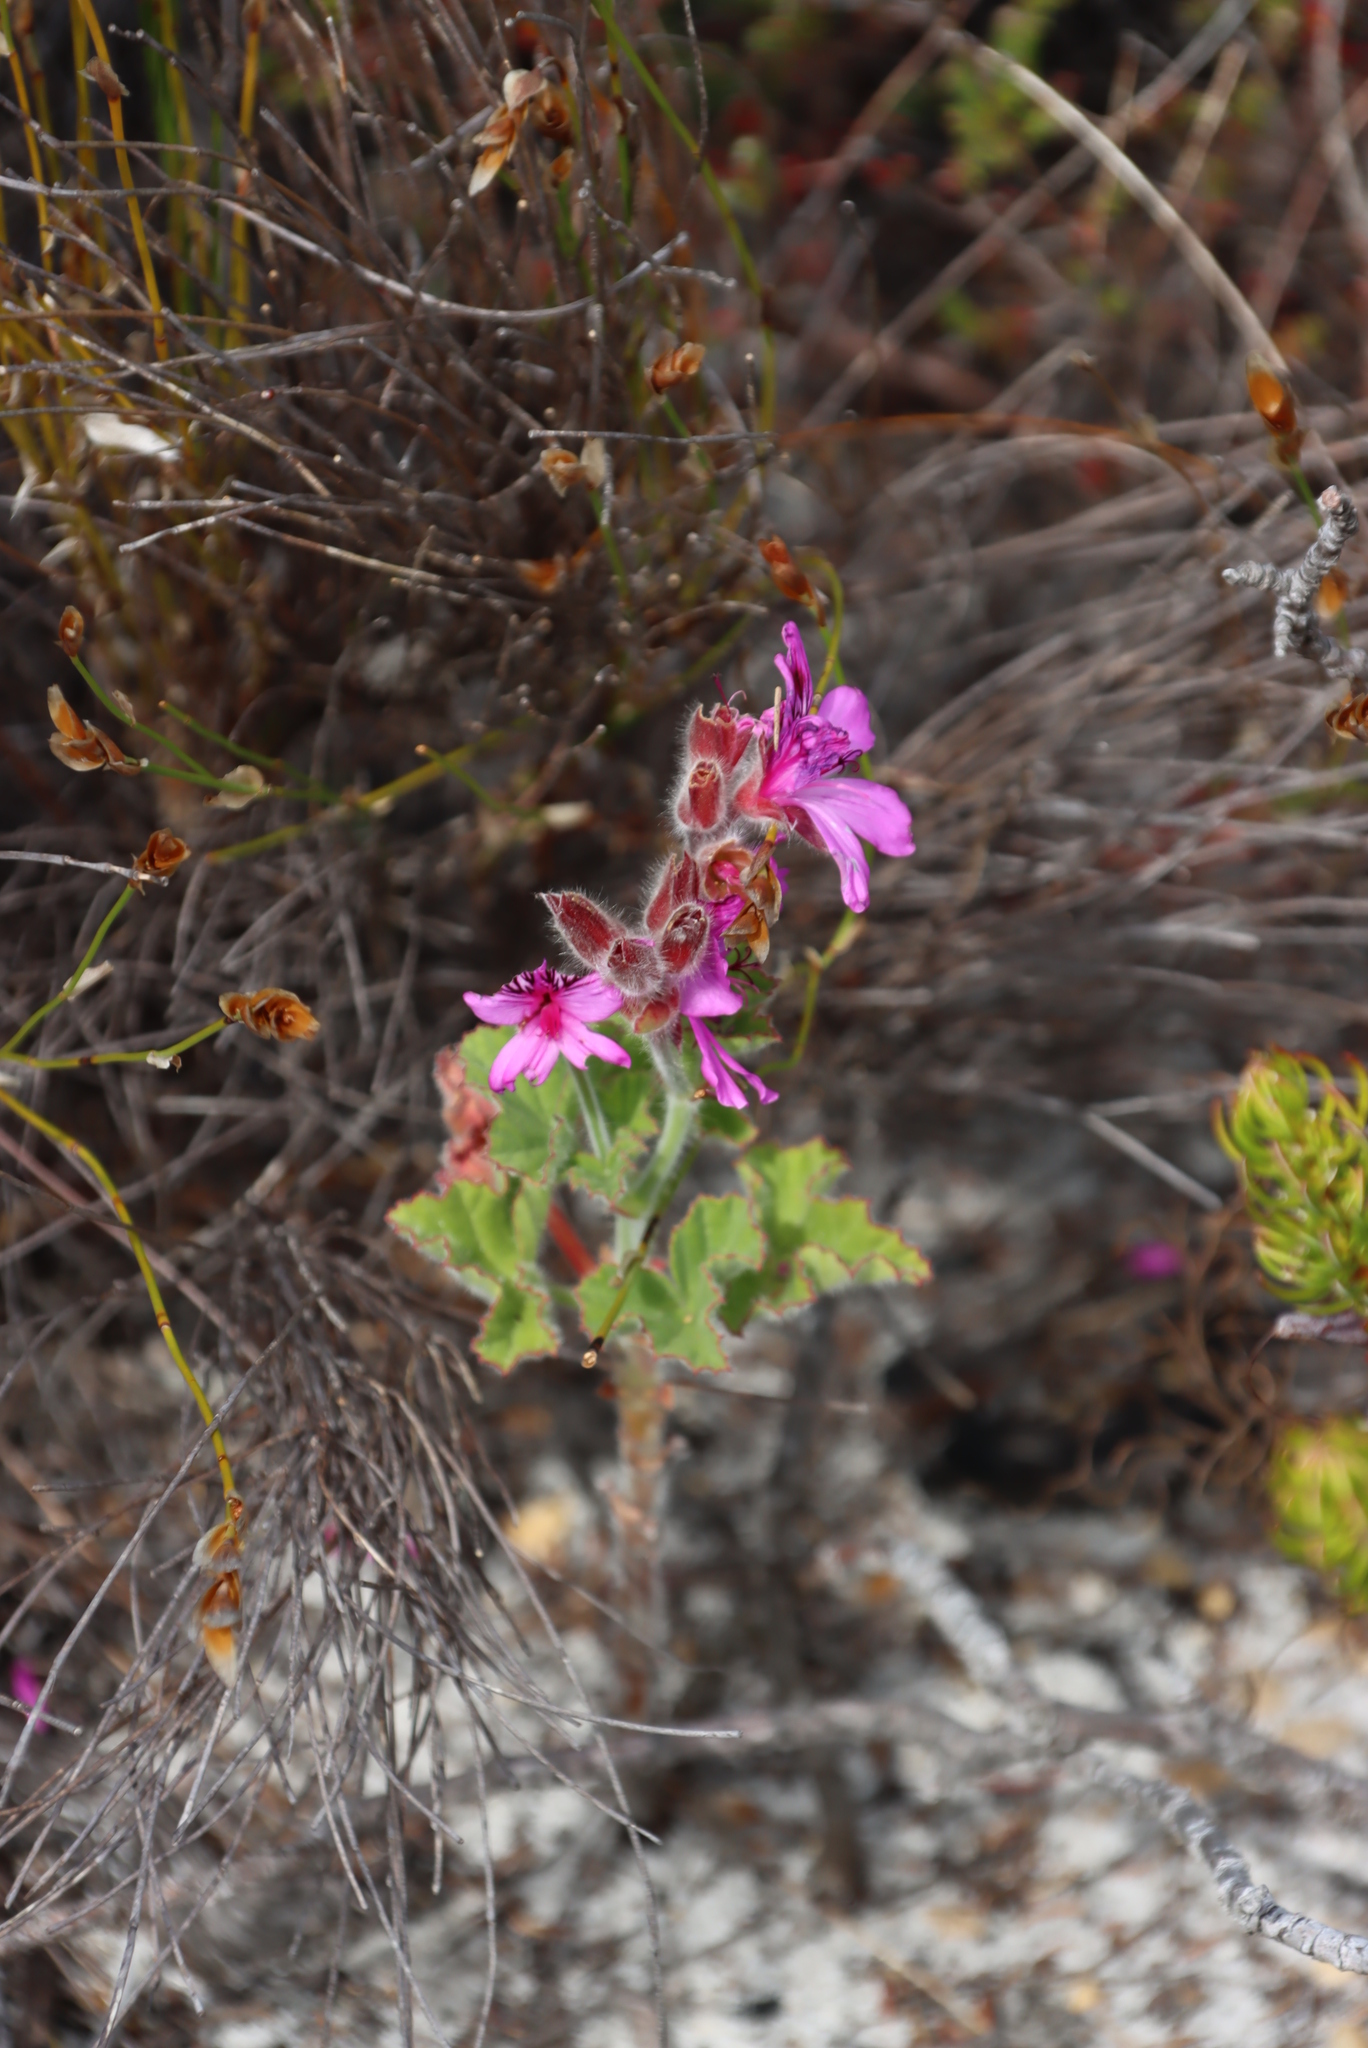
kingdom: Plantae
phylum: Tracheophyta
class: Magnoliopsida
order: Geraniales
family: Geraniaceae
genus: Pelargonium
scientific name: Pelargonium cucullatum
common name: Tree pelargonium
